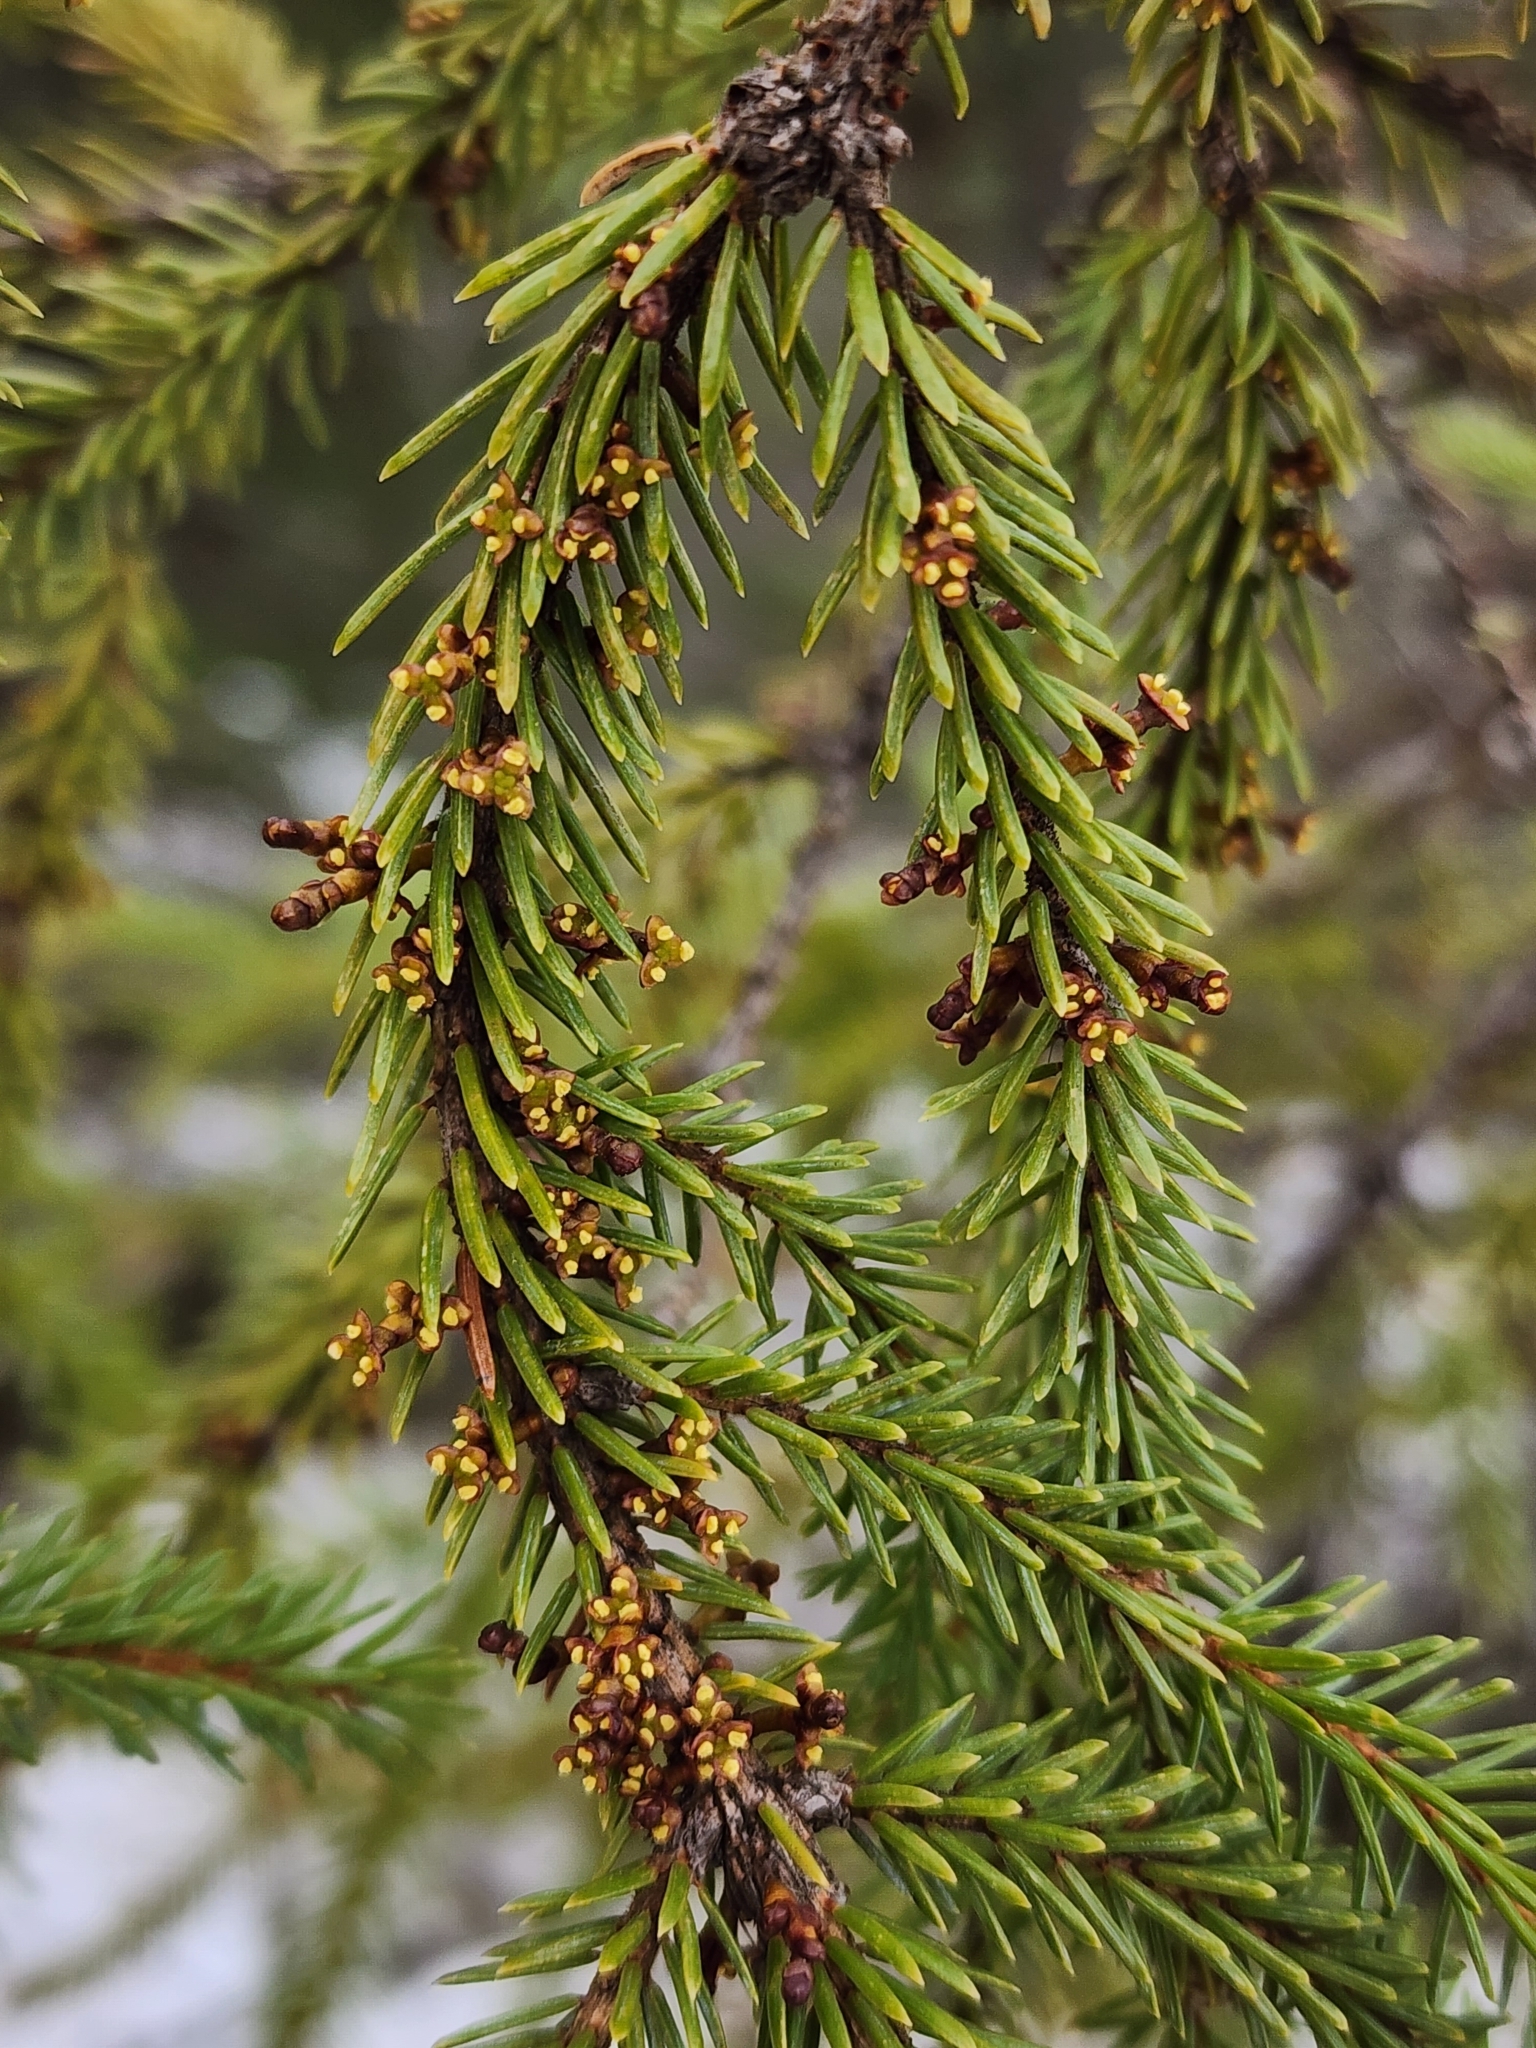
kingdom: Plantae
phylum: Tracheophyta
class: Magnoliopsida
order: Santalales
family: Viscaceae
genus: Arceuthobium
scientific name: Arceuthobium pusillum
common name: Dwarf-mistletoe
